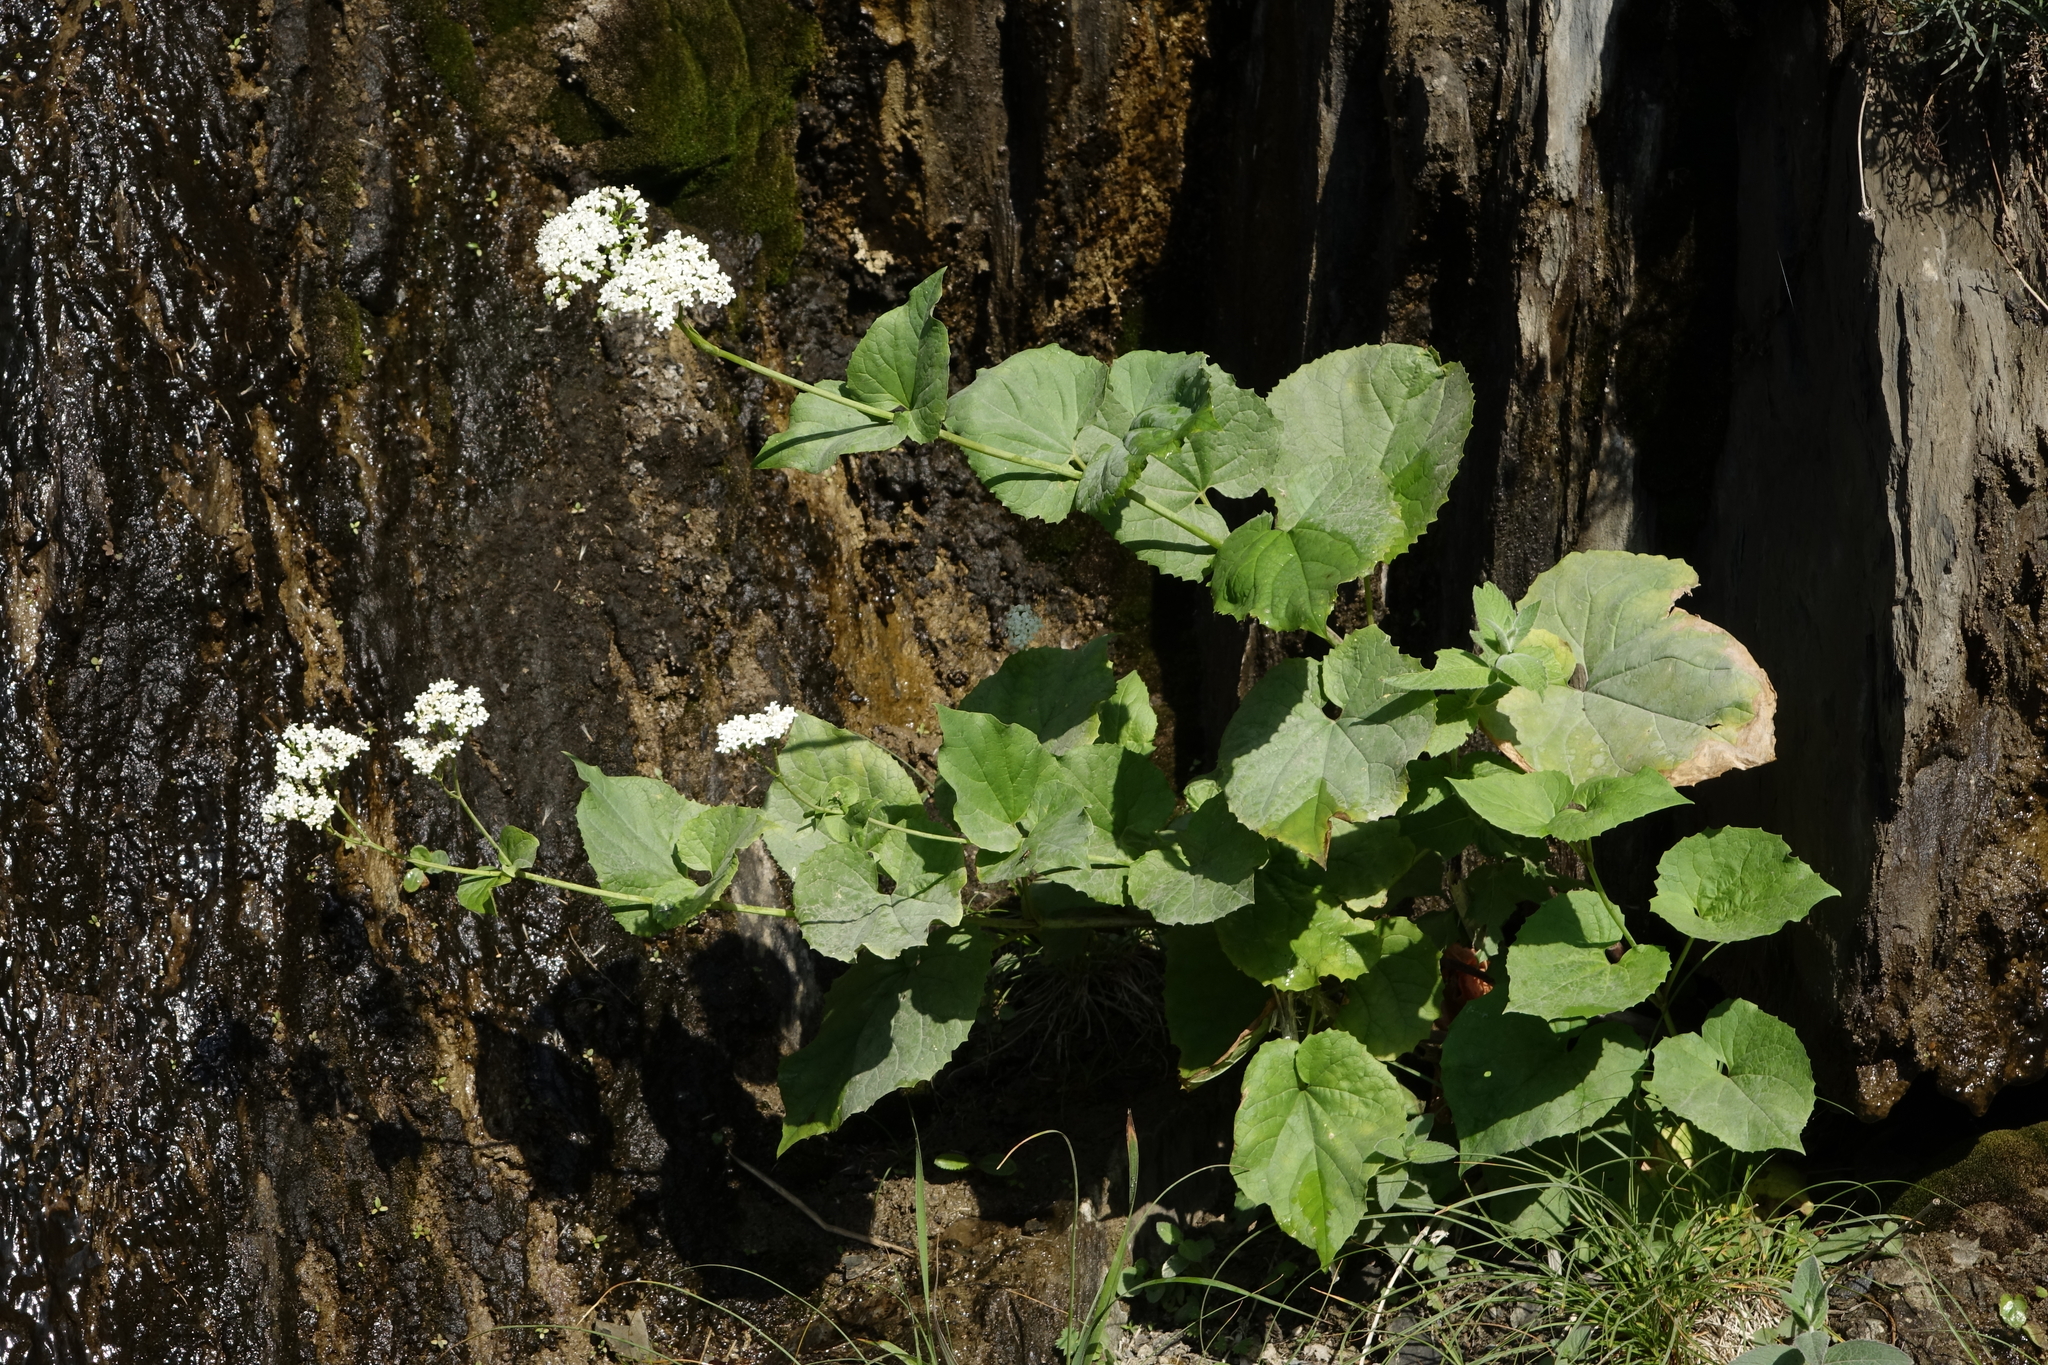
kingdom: Plantae
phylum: Tracheophyta
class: Magnoliopsida
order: Dipsacales
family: Caprifoliaceae
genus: Valeriana
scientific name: Valeriana alliariifolia
